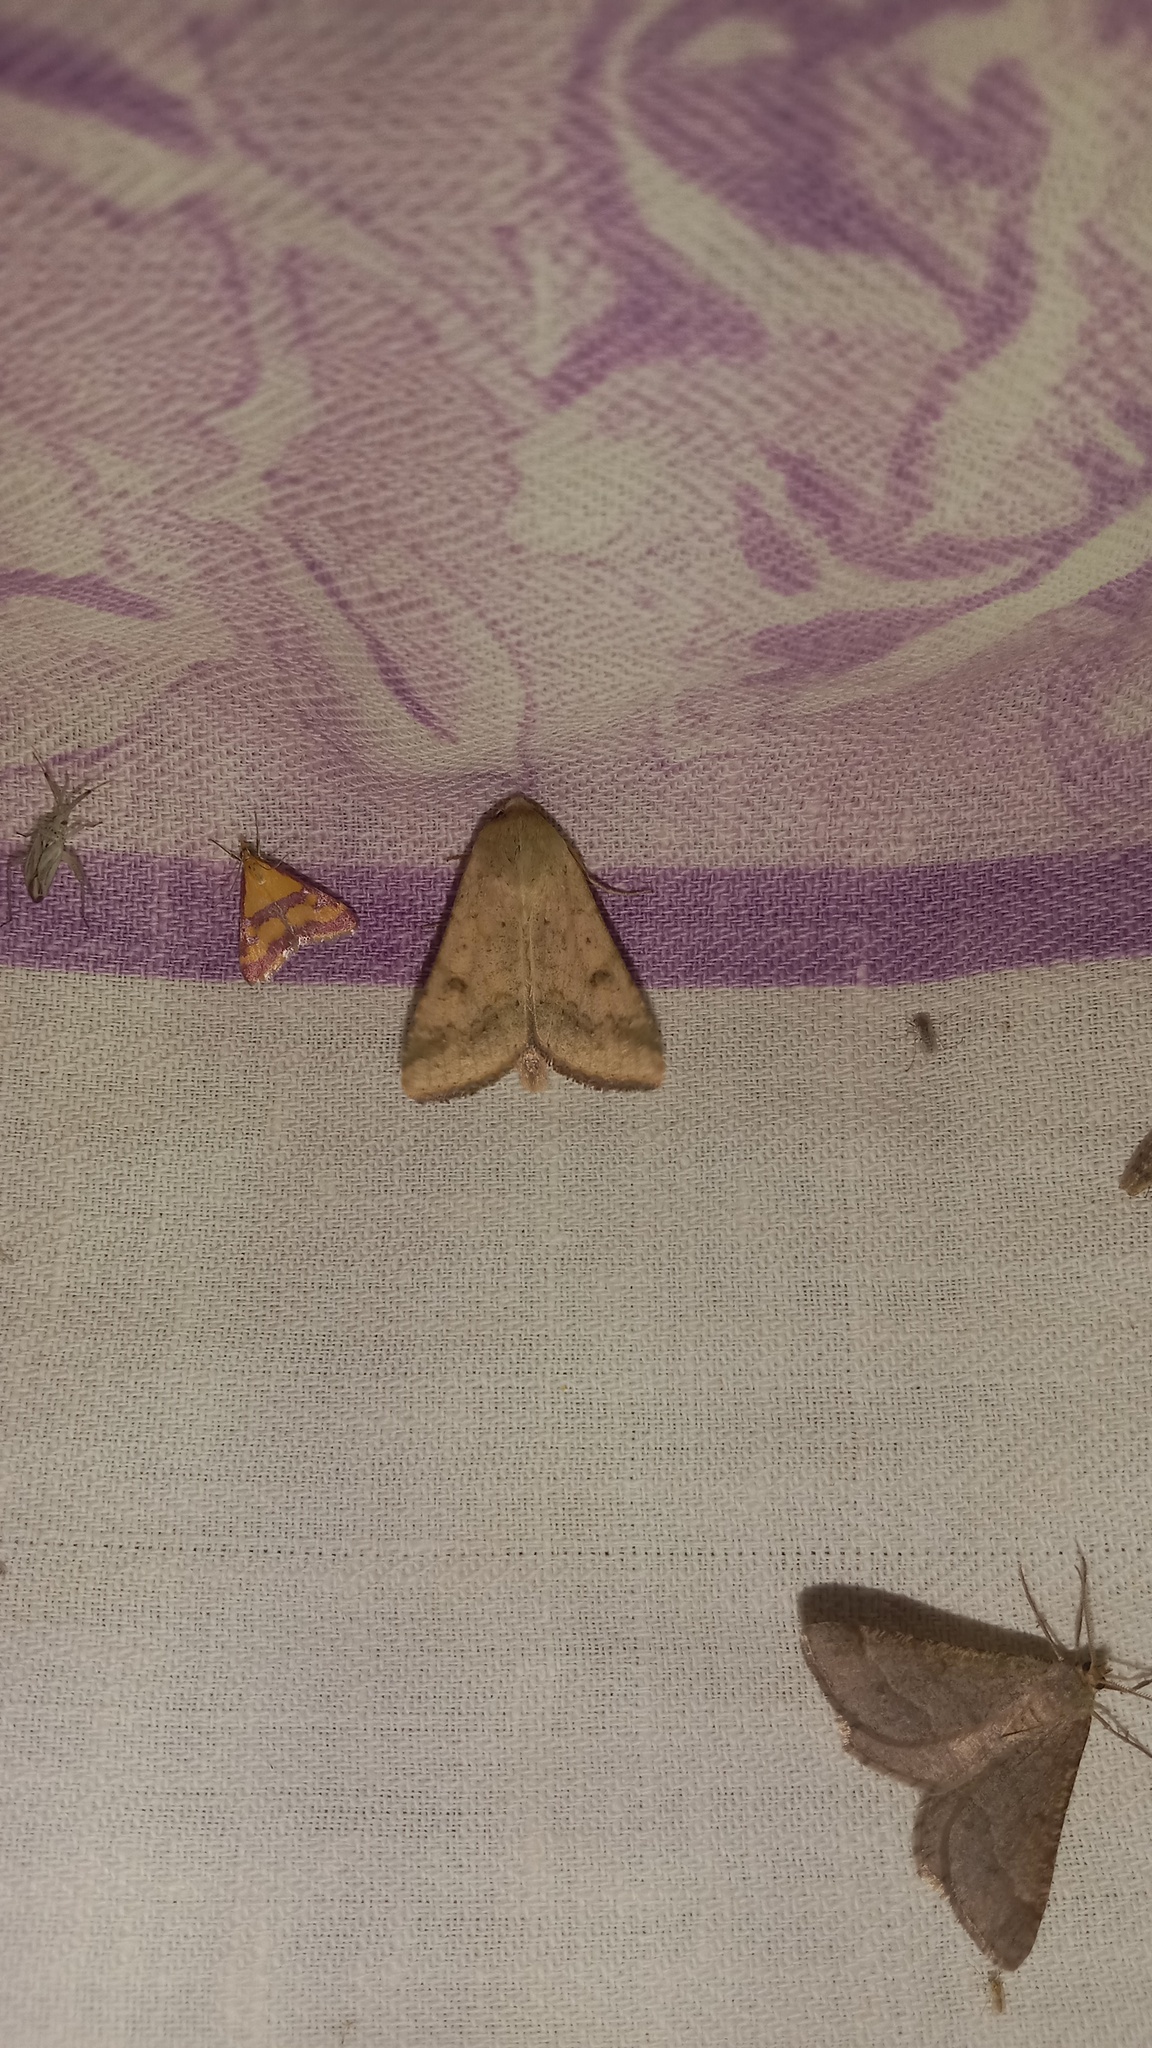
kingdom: Animalia
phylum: Arthropoda
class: Insecta
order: Lepidoptera
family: Noctuidae
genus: Helicoverpa
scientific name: Helicoverpa armigera
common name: Cotton bollworm
